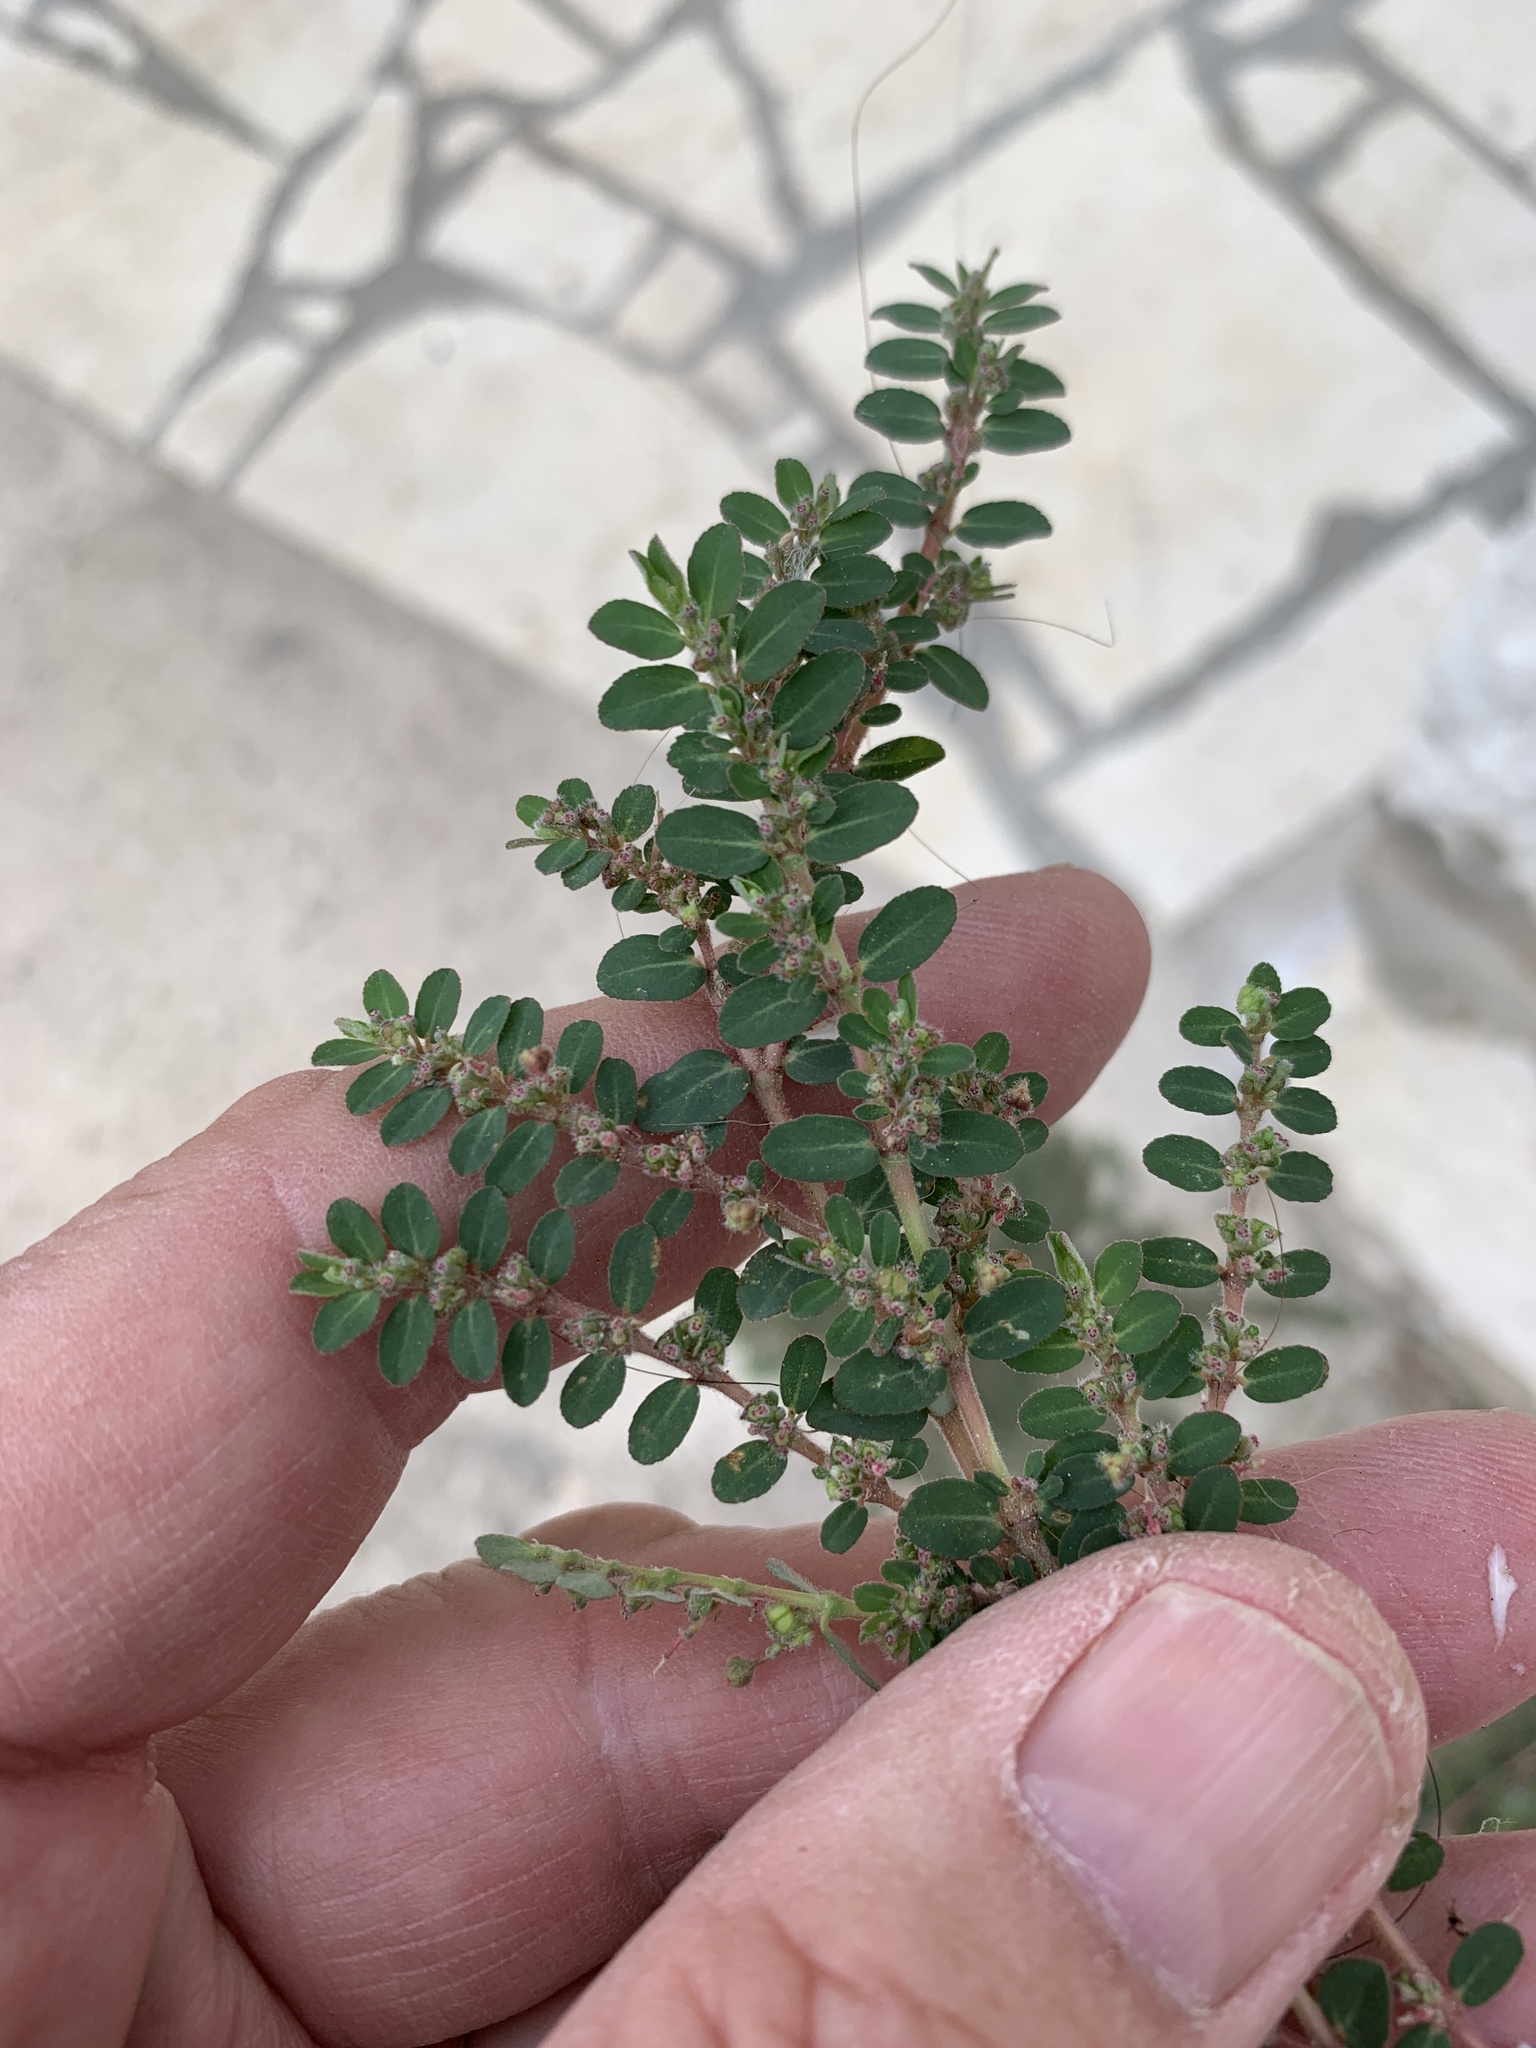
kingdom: Plantae
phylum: Tracheophyta
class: Magnoliopsida
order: Malpighiales
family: Euphorbiaceae
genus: Euphorbia
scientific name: Euphorbia prostrata
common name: Prostrate sandmat
